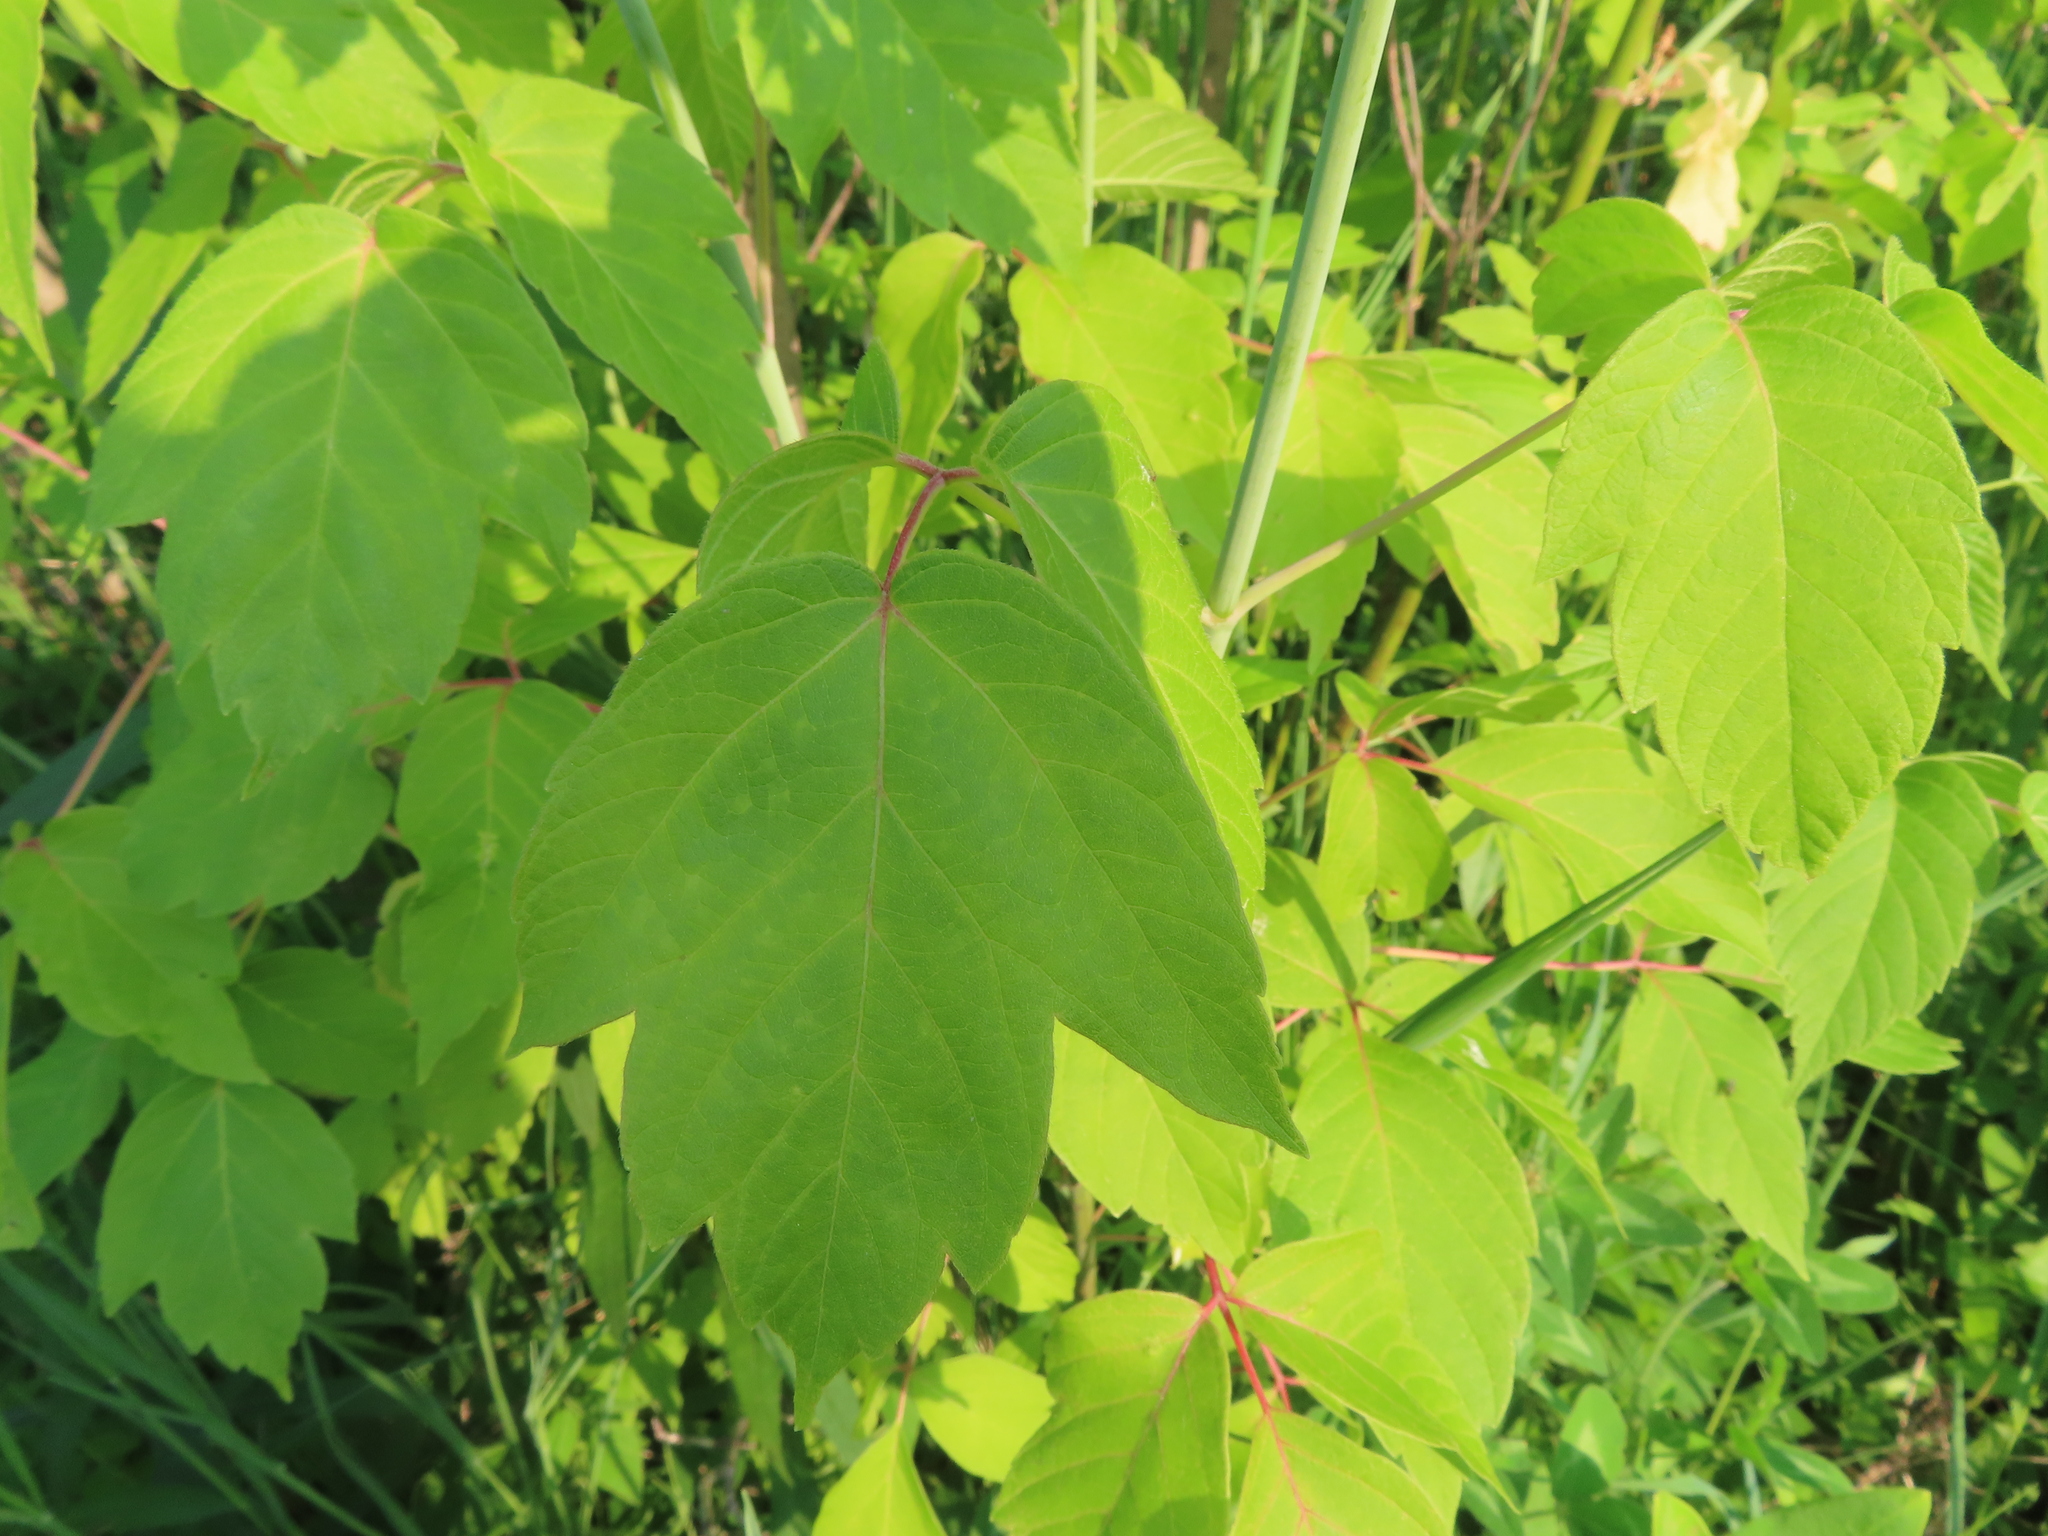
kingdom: Plantae
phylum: Tracheophyta
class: Magnoliopsida
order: Sapindales
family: Sapindaceae
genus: Acer
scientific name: Acer negundo
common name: Ashleaf maple
